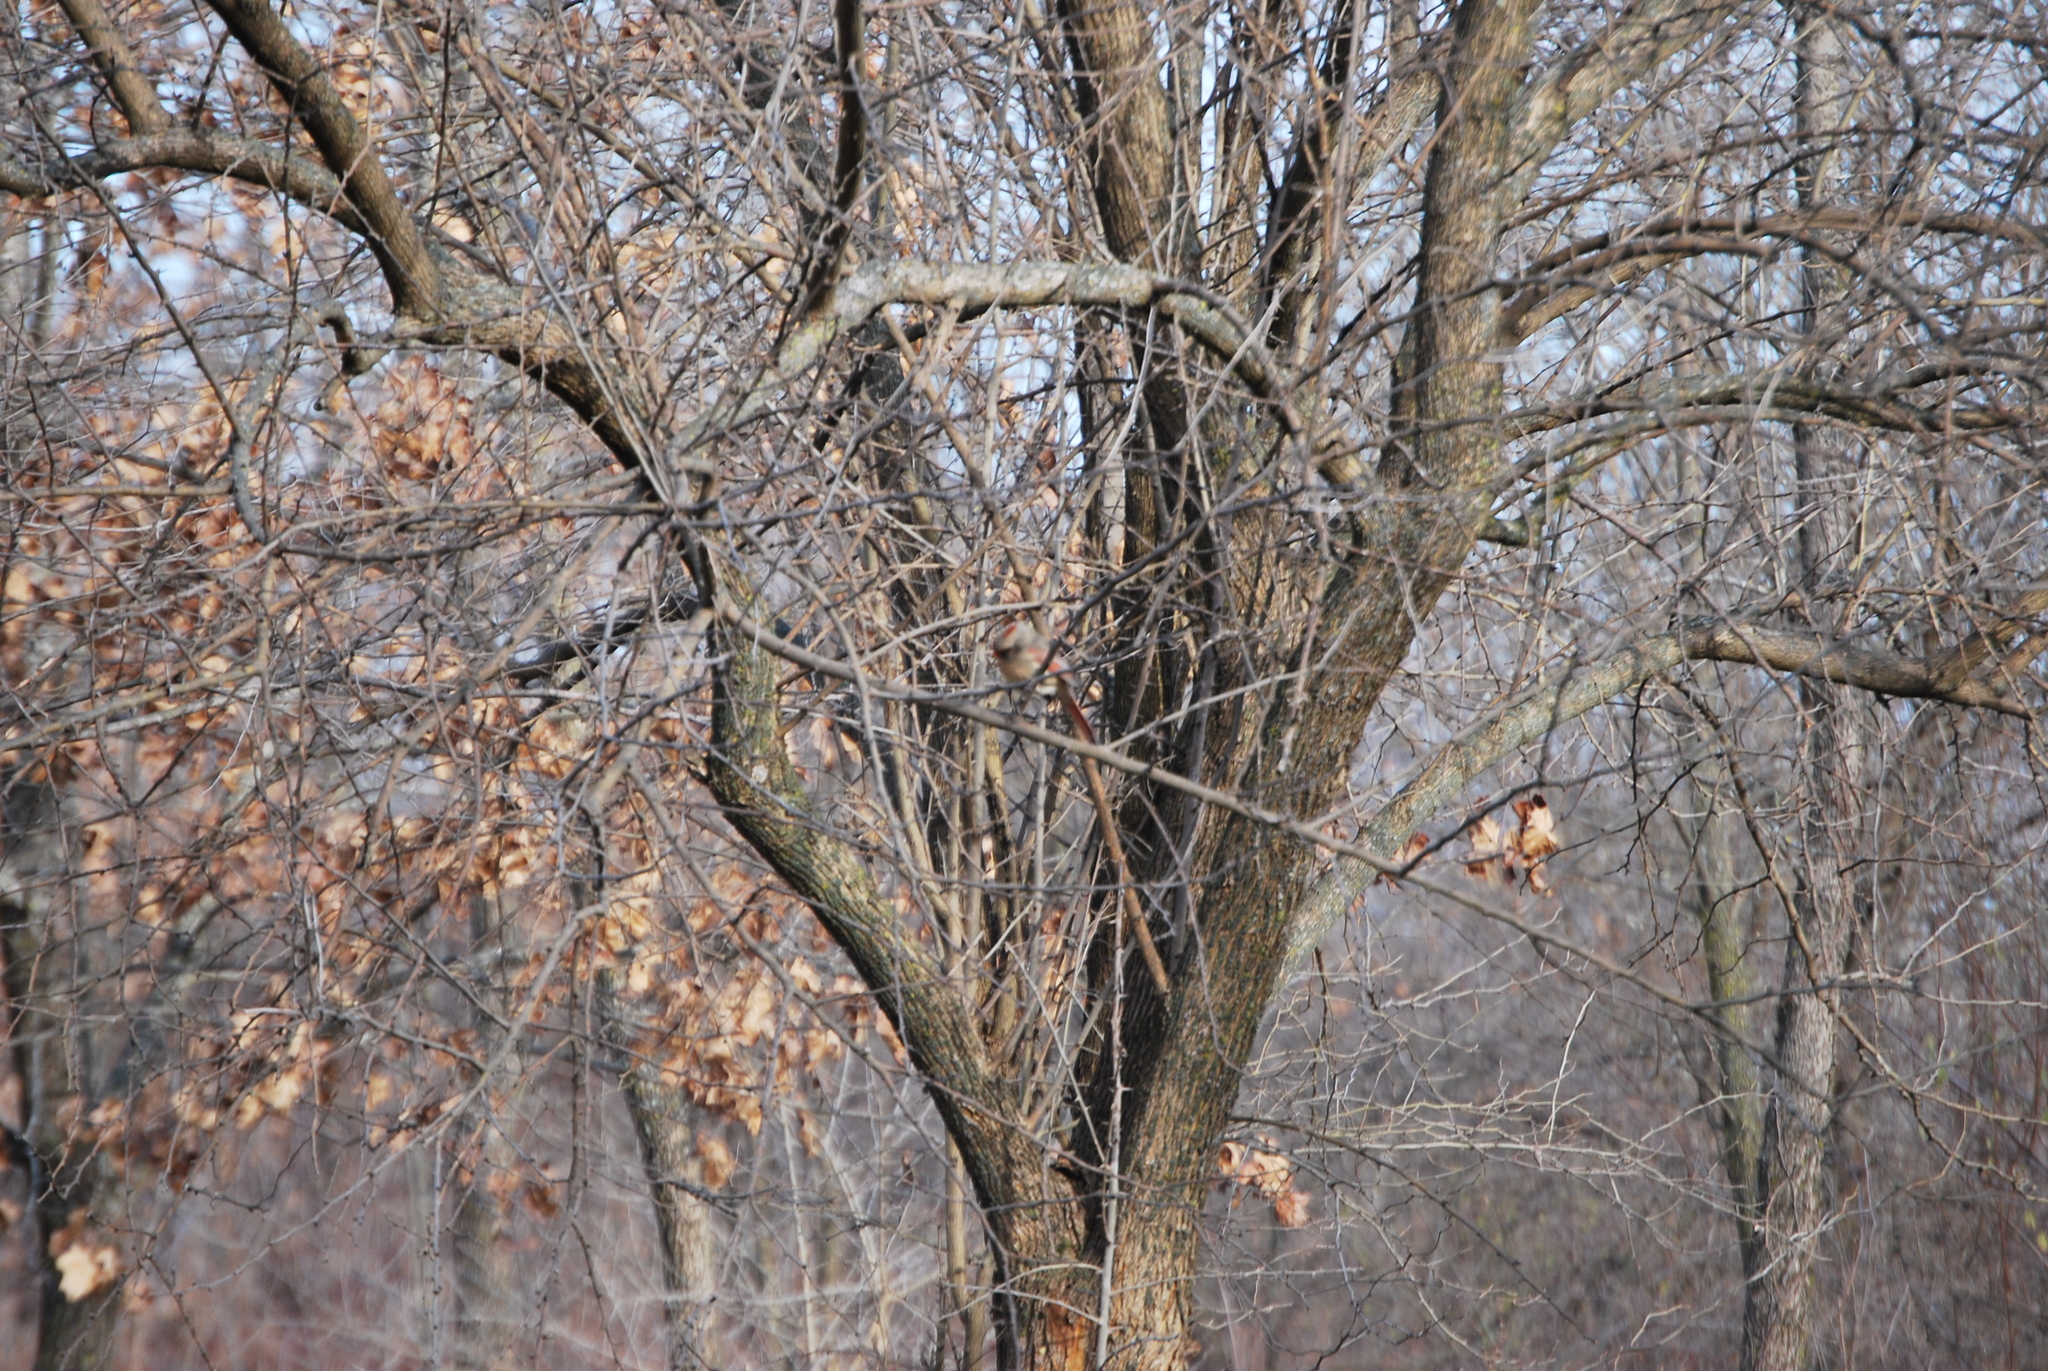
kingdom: Animalia
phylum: Chordata
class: Aves
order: Passeriformes
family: Cardinalidae
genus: Cardinalis
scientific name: Cardinalis cardinalis
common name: Northern cardinal
